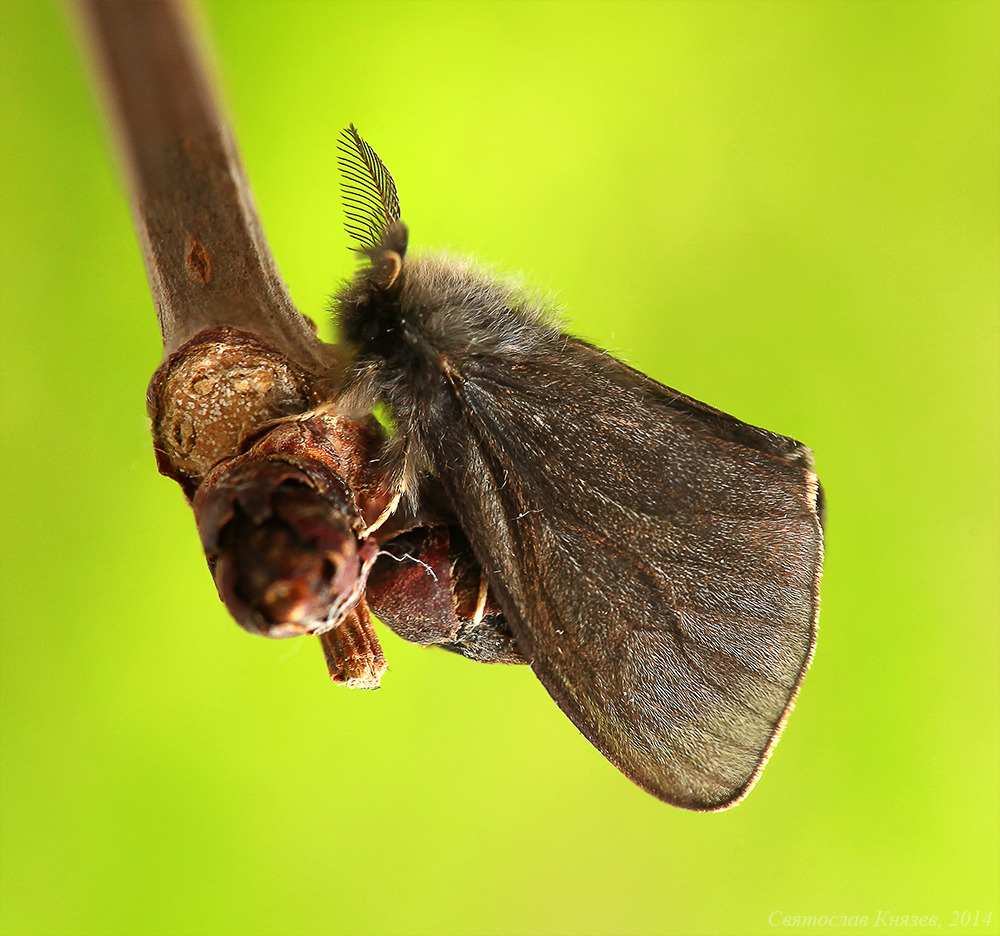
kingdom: Animalia
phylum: Arthropoda
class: Insecta
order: Lepidoptera
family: Psychidae
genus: Canephora
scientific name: Canephora hirsuta
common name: Hairy sweep
